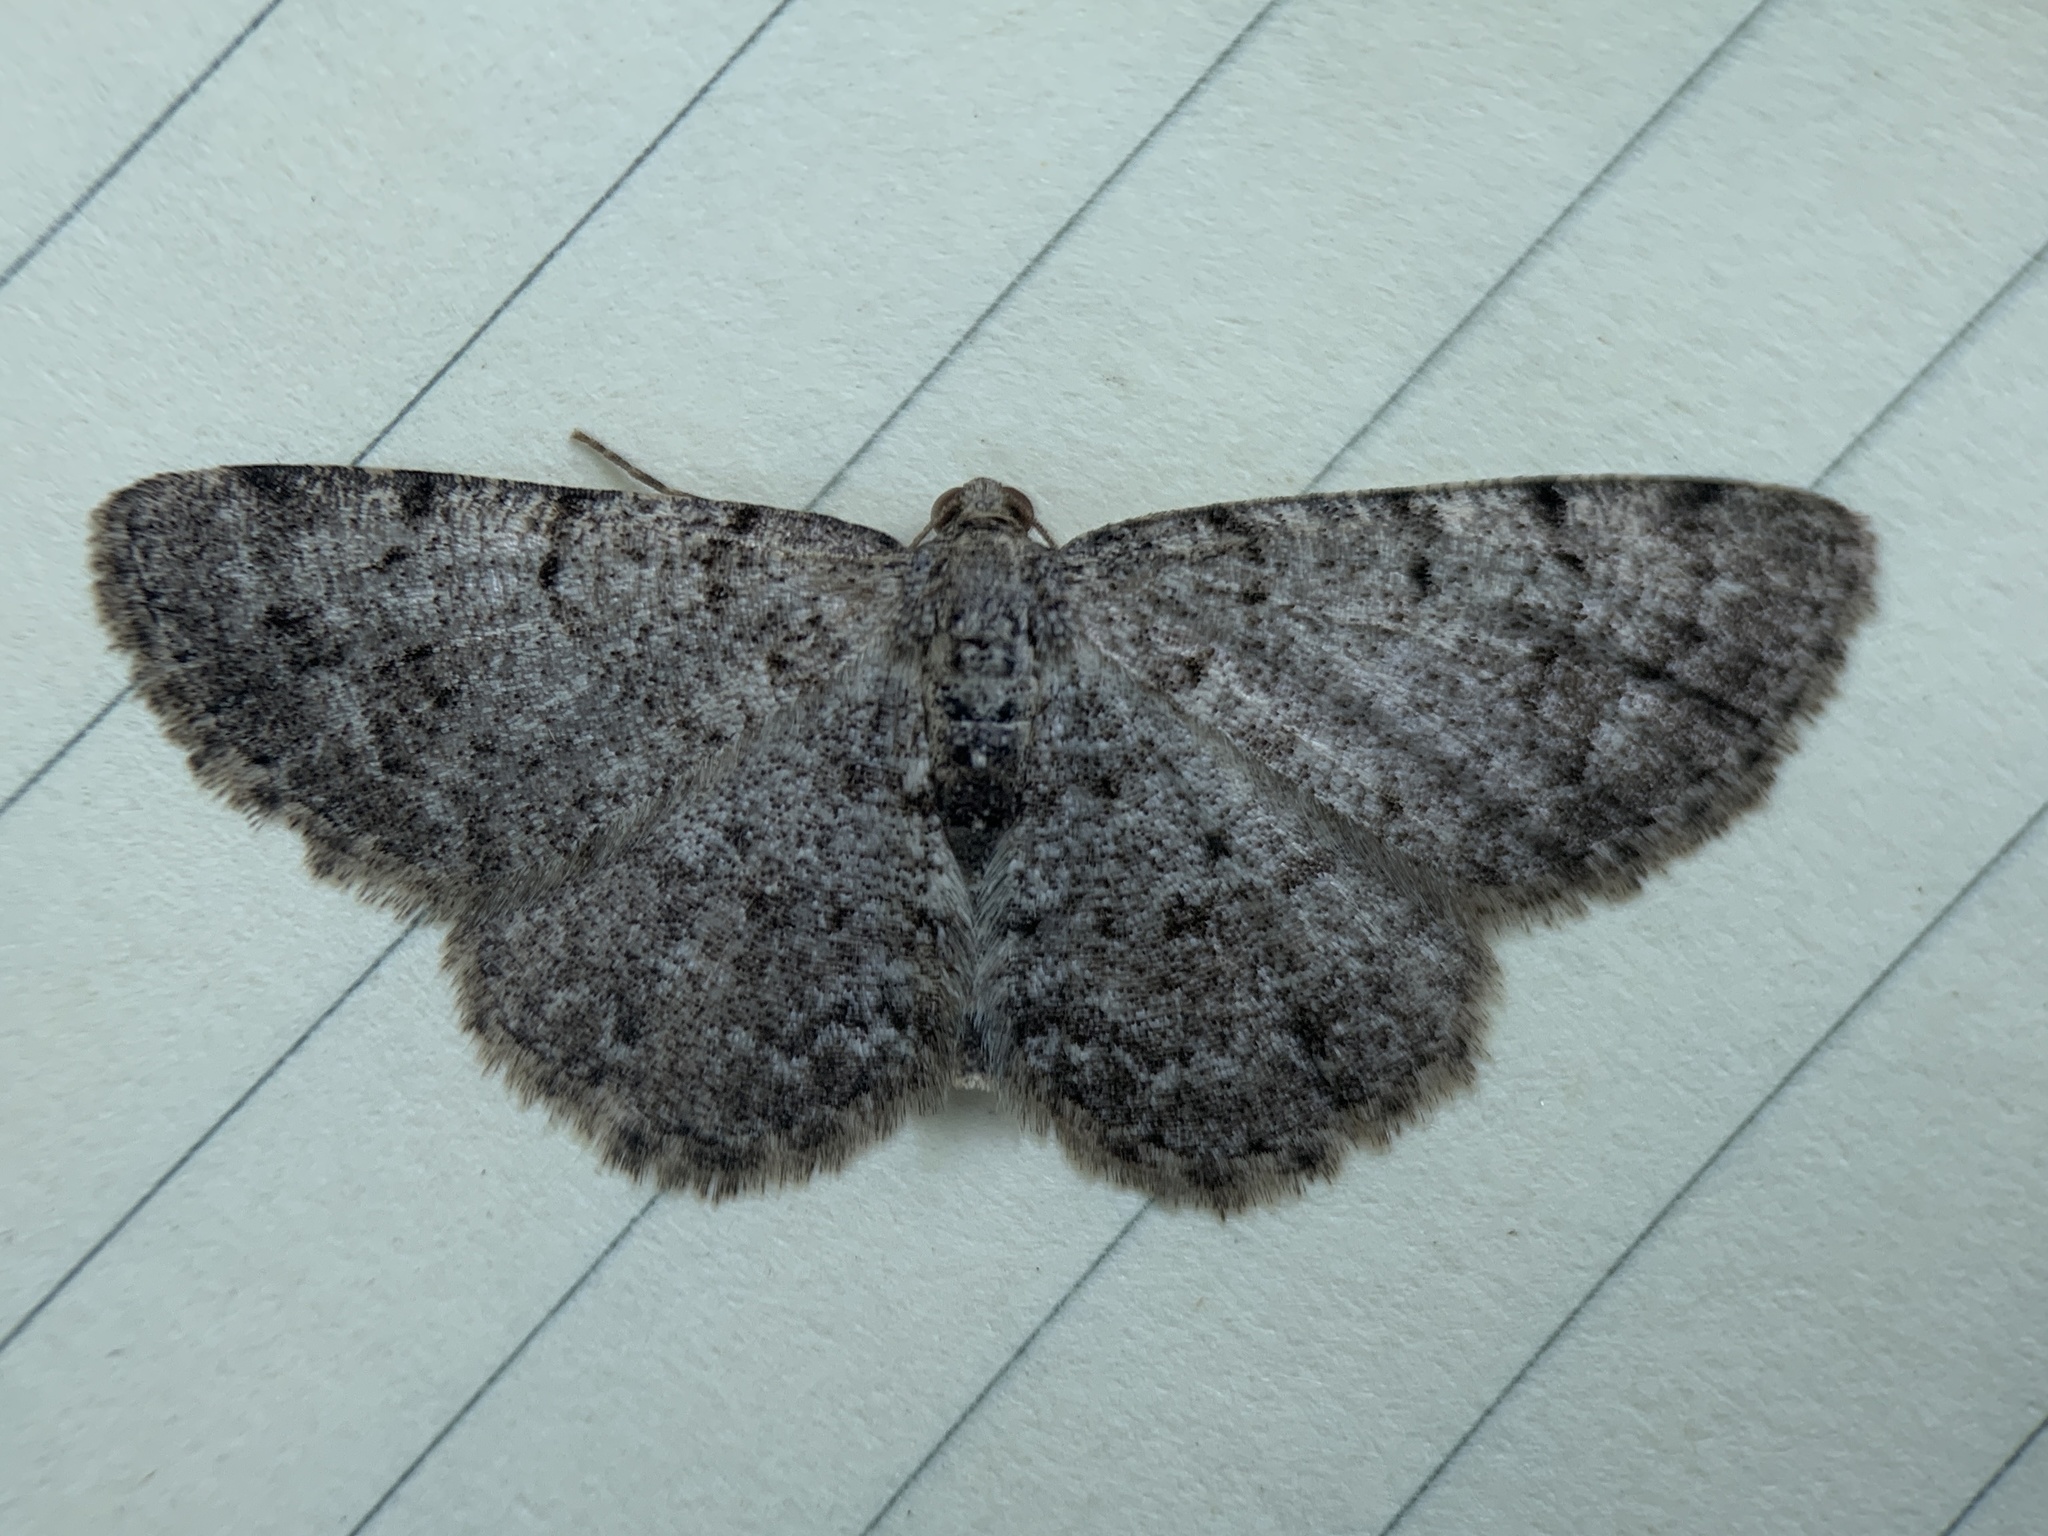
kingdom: Animalia
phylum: Arthropoda
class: Insecta
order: Lepidoptera
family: Geometridae
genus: Aethalura
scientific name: Aethalura intertexta
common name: Four-barred gray
